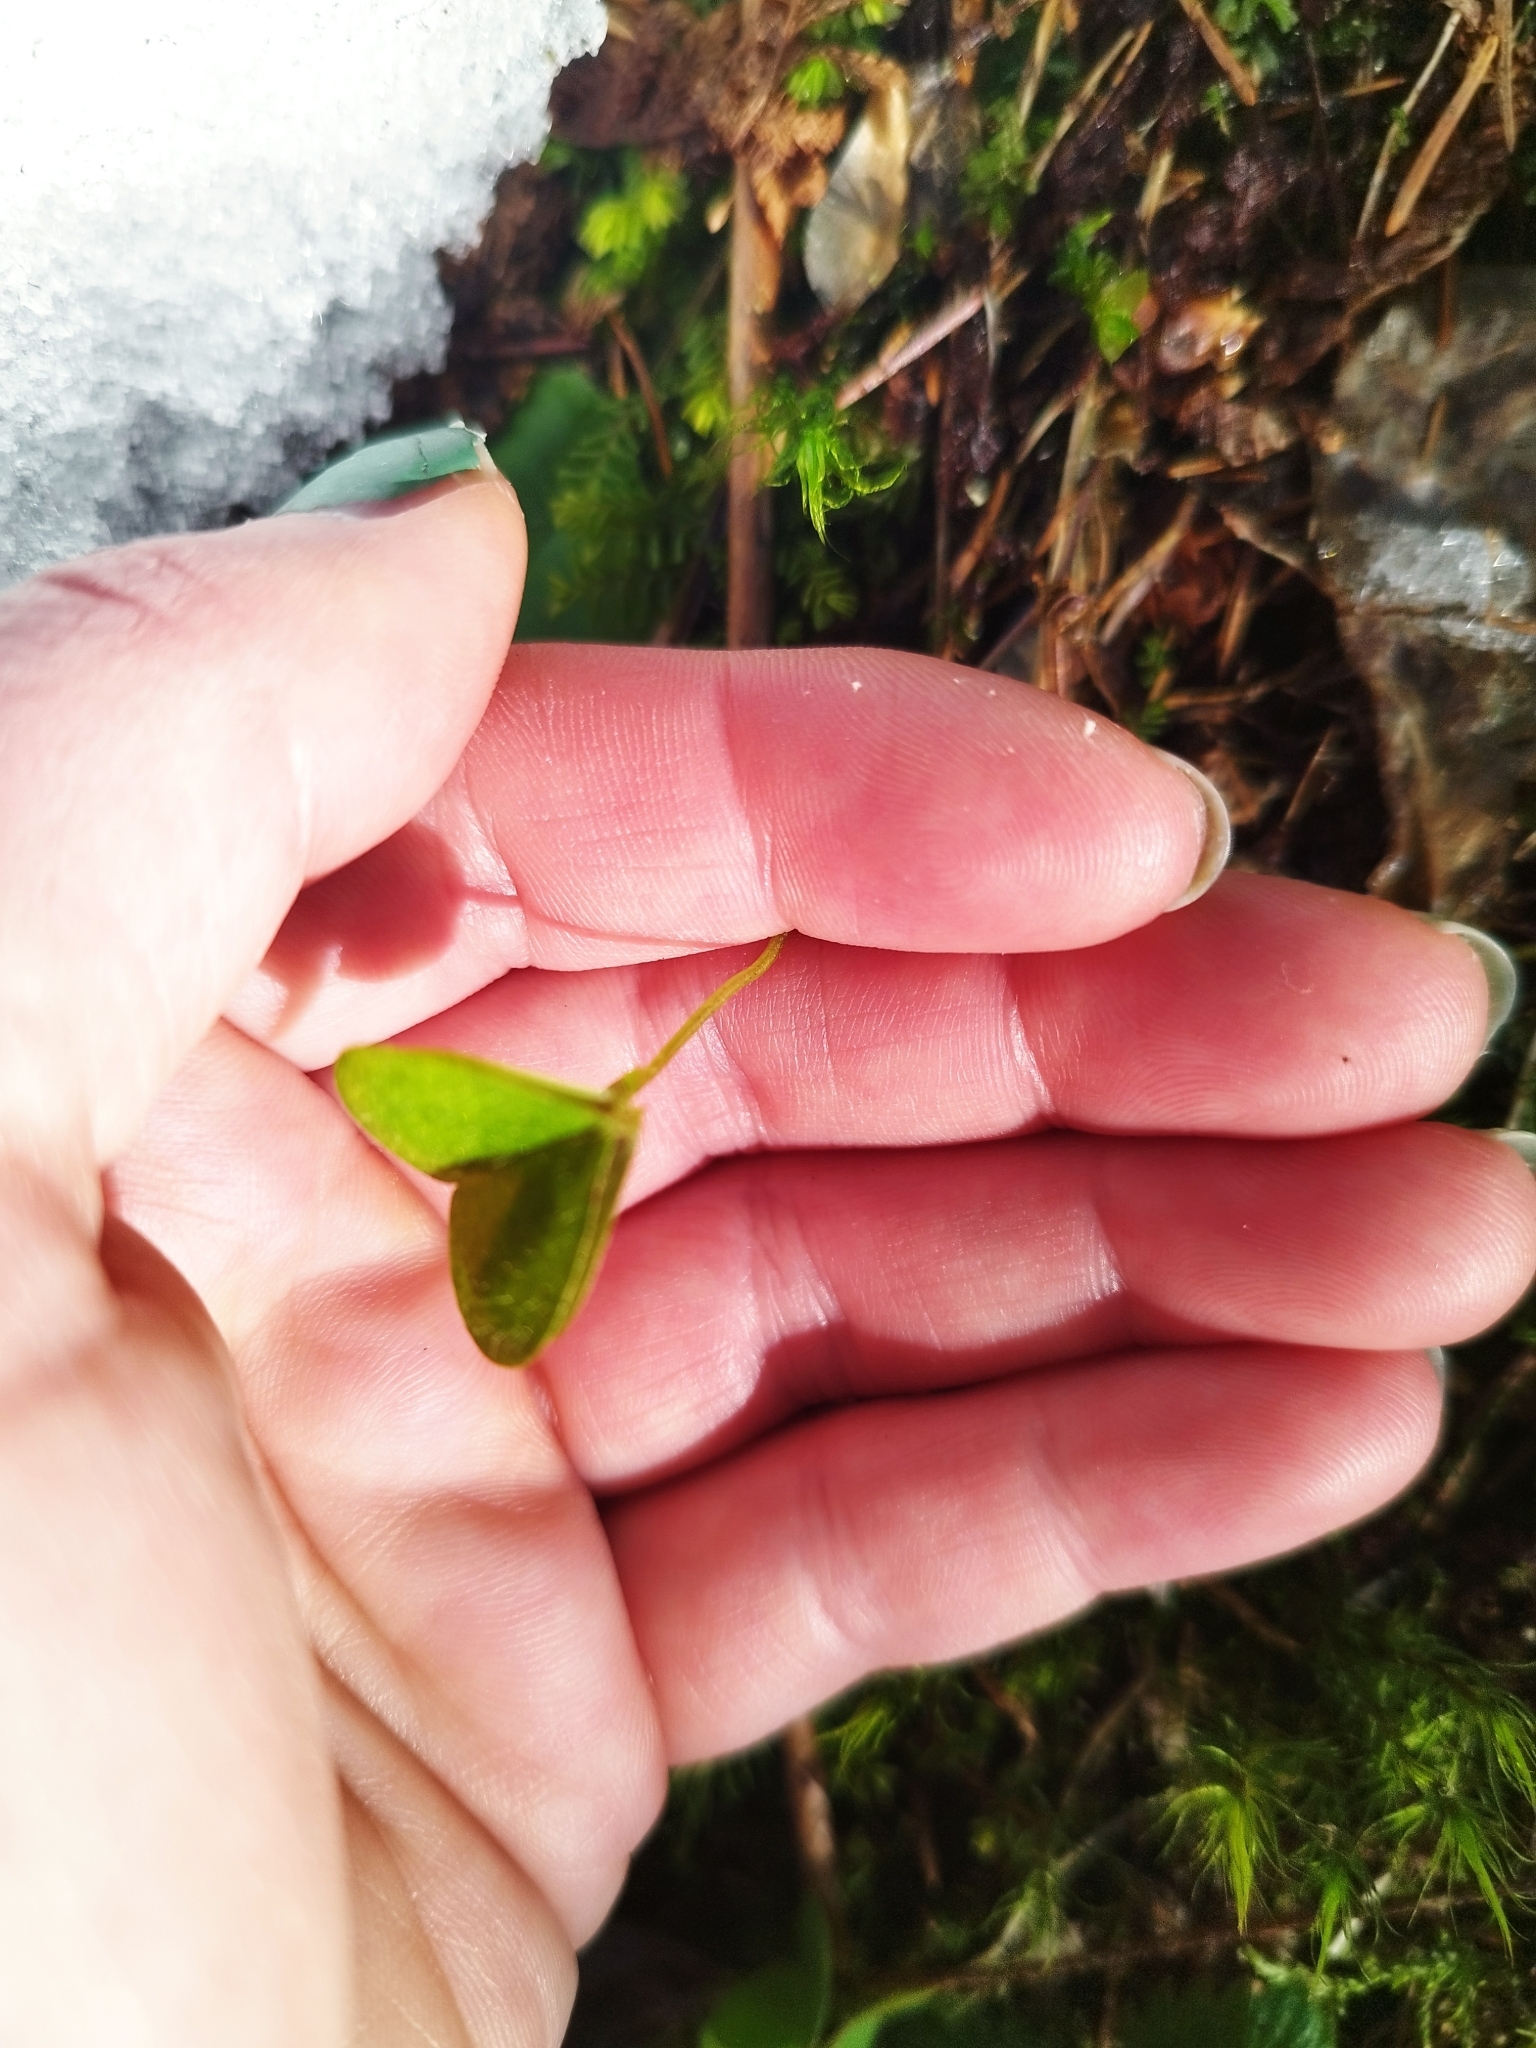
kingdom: Plantae
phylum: Tracheophyta
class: Magnoliopsida
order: Oxalidales
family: Oxalidaceae
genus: Oxalis
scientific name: Oxalis acetosella
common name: Wood-sorrel
